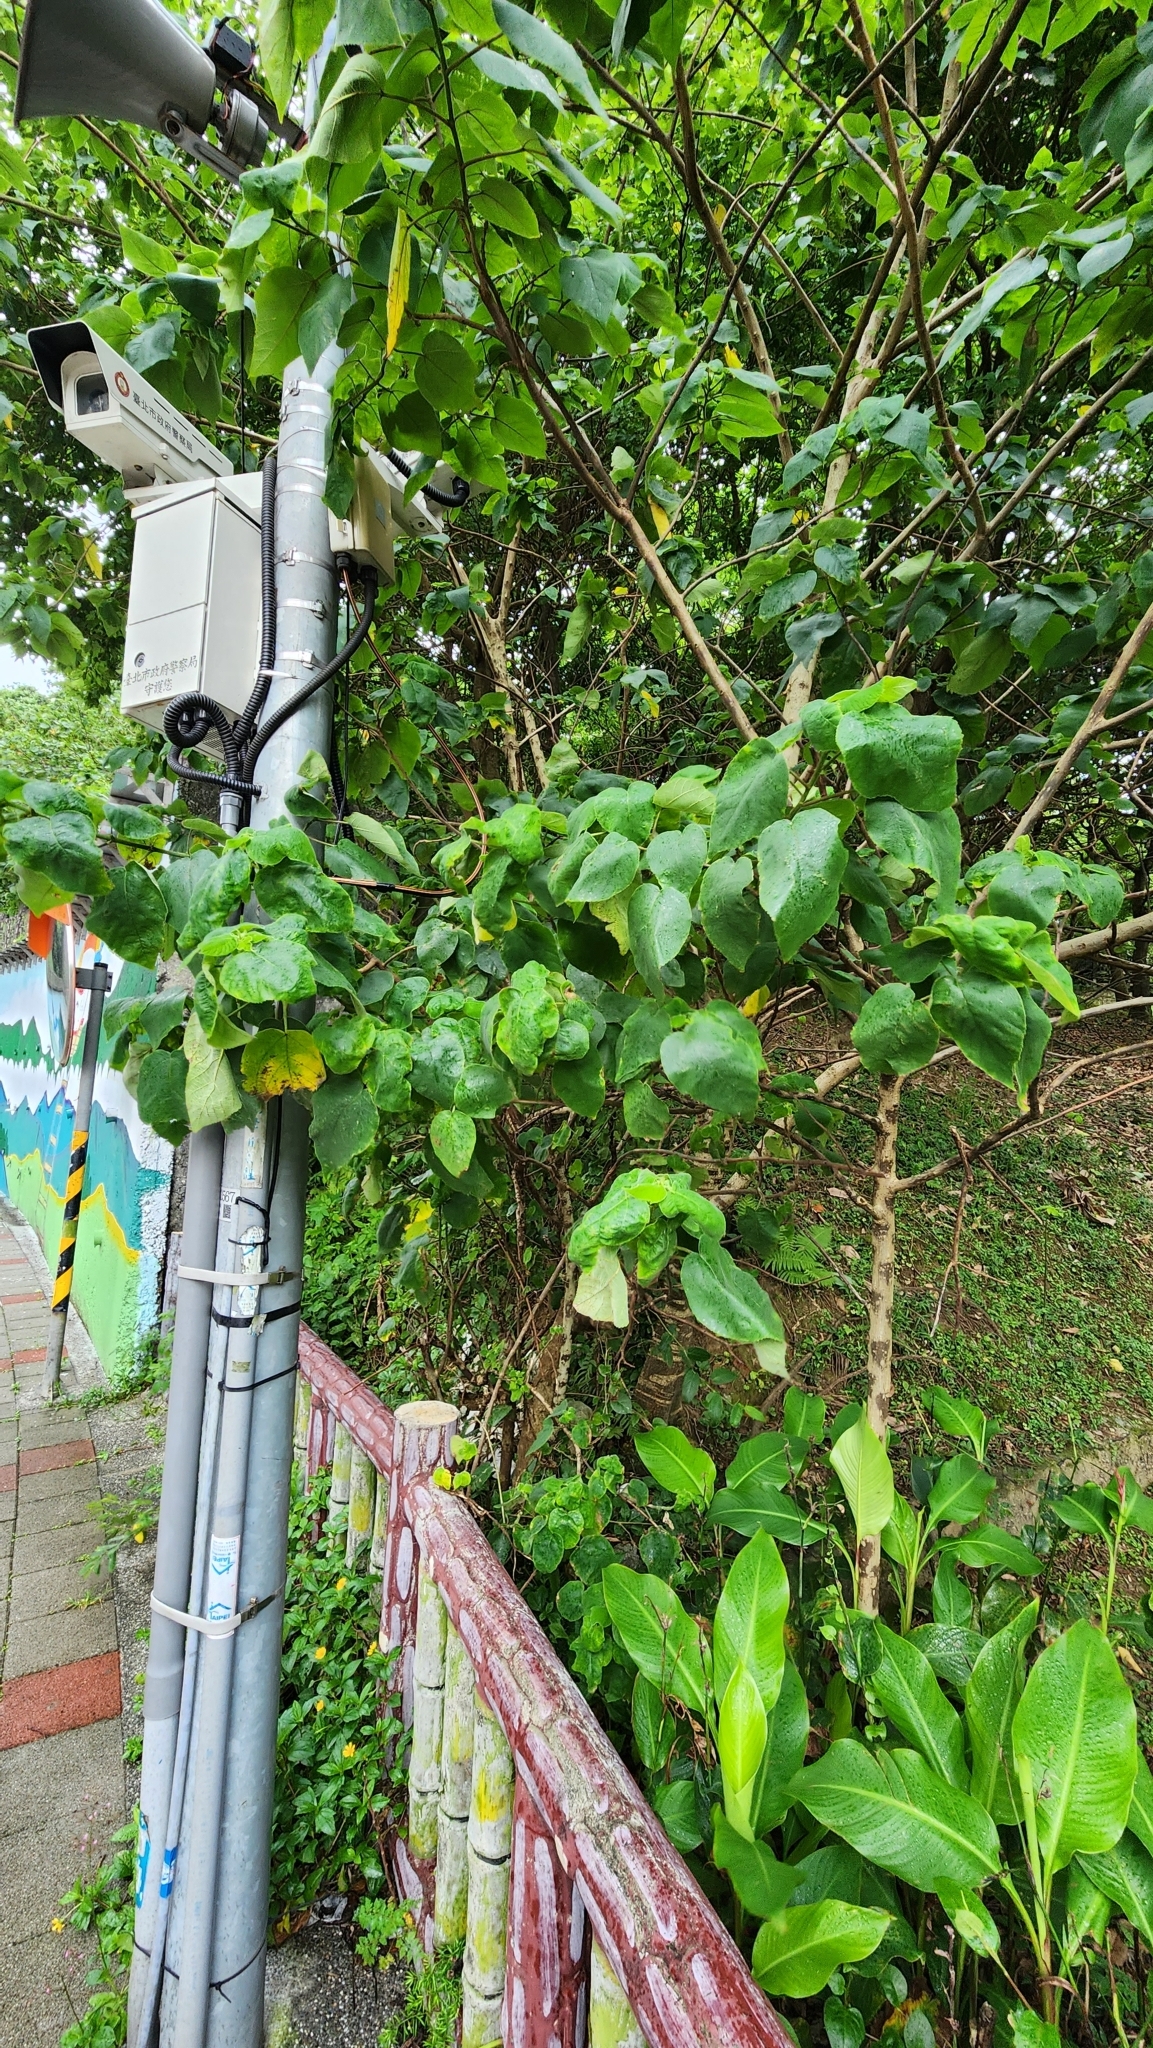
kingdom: Plantae
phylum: Tracheophyta
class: Magnoliopsida
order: Rosales
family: Moraceae
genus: Broussonetia
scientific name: Broussonetia papyrifera
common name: Paper mulberry
